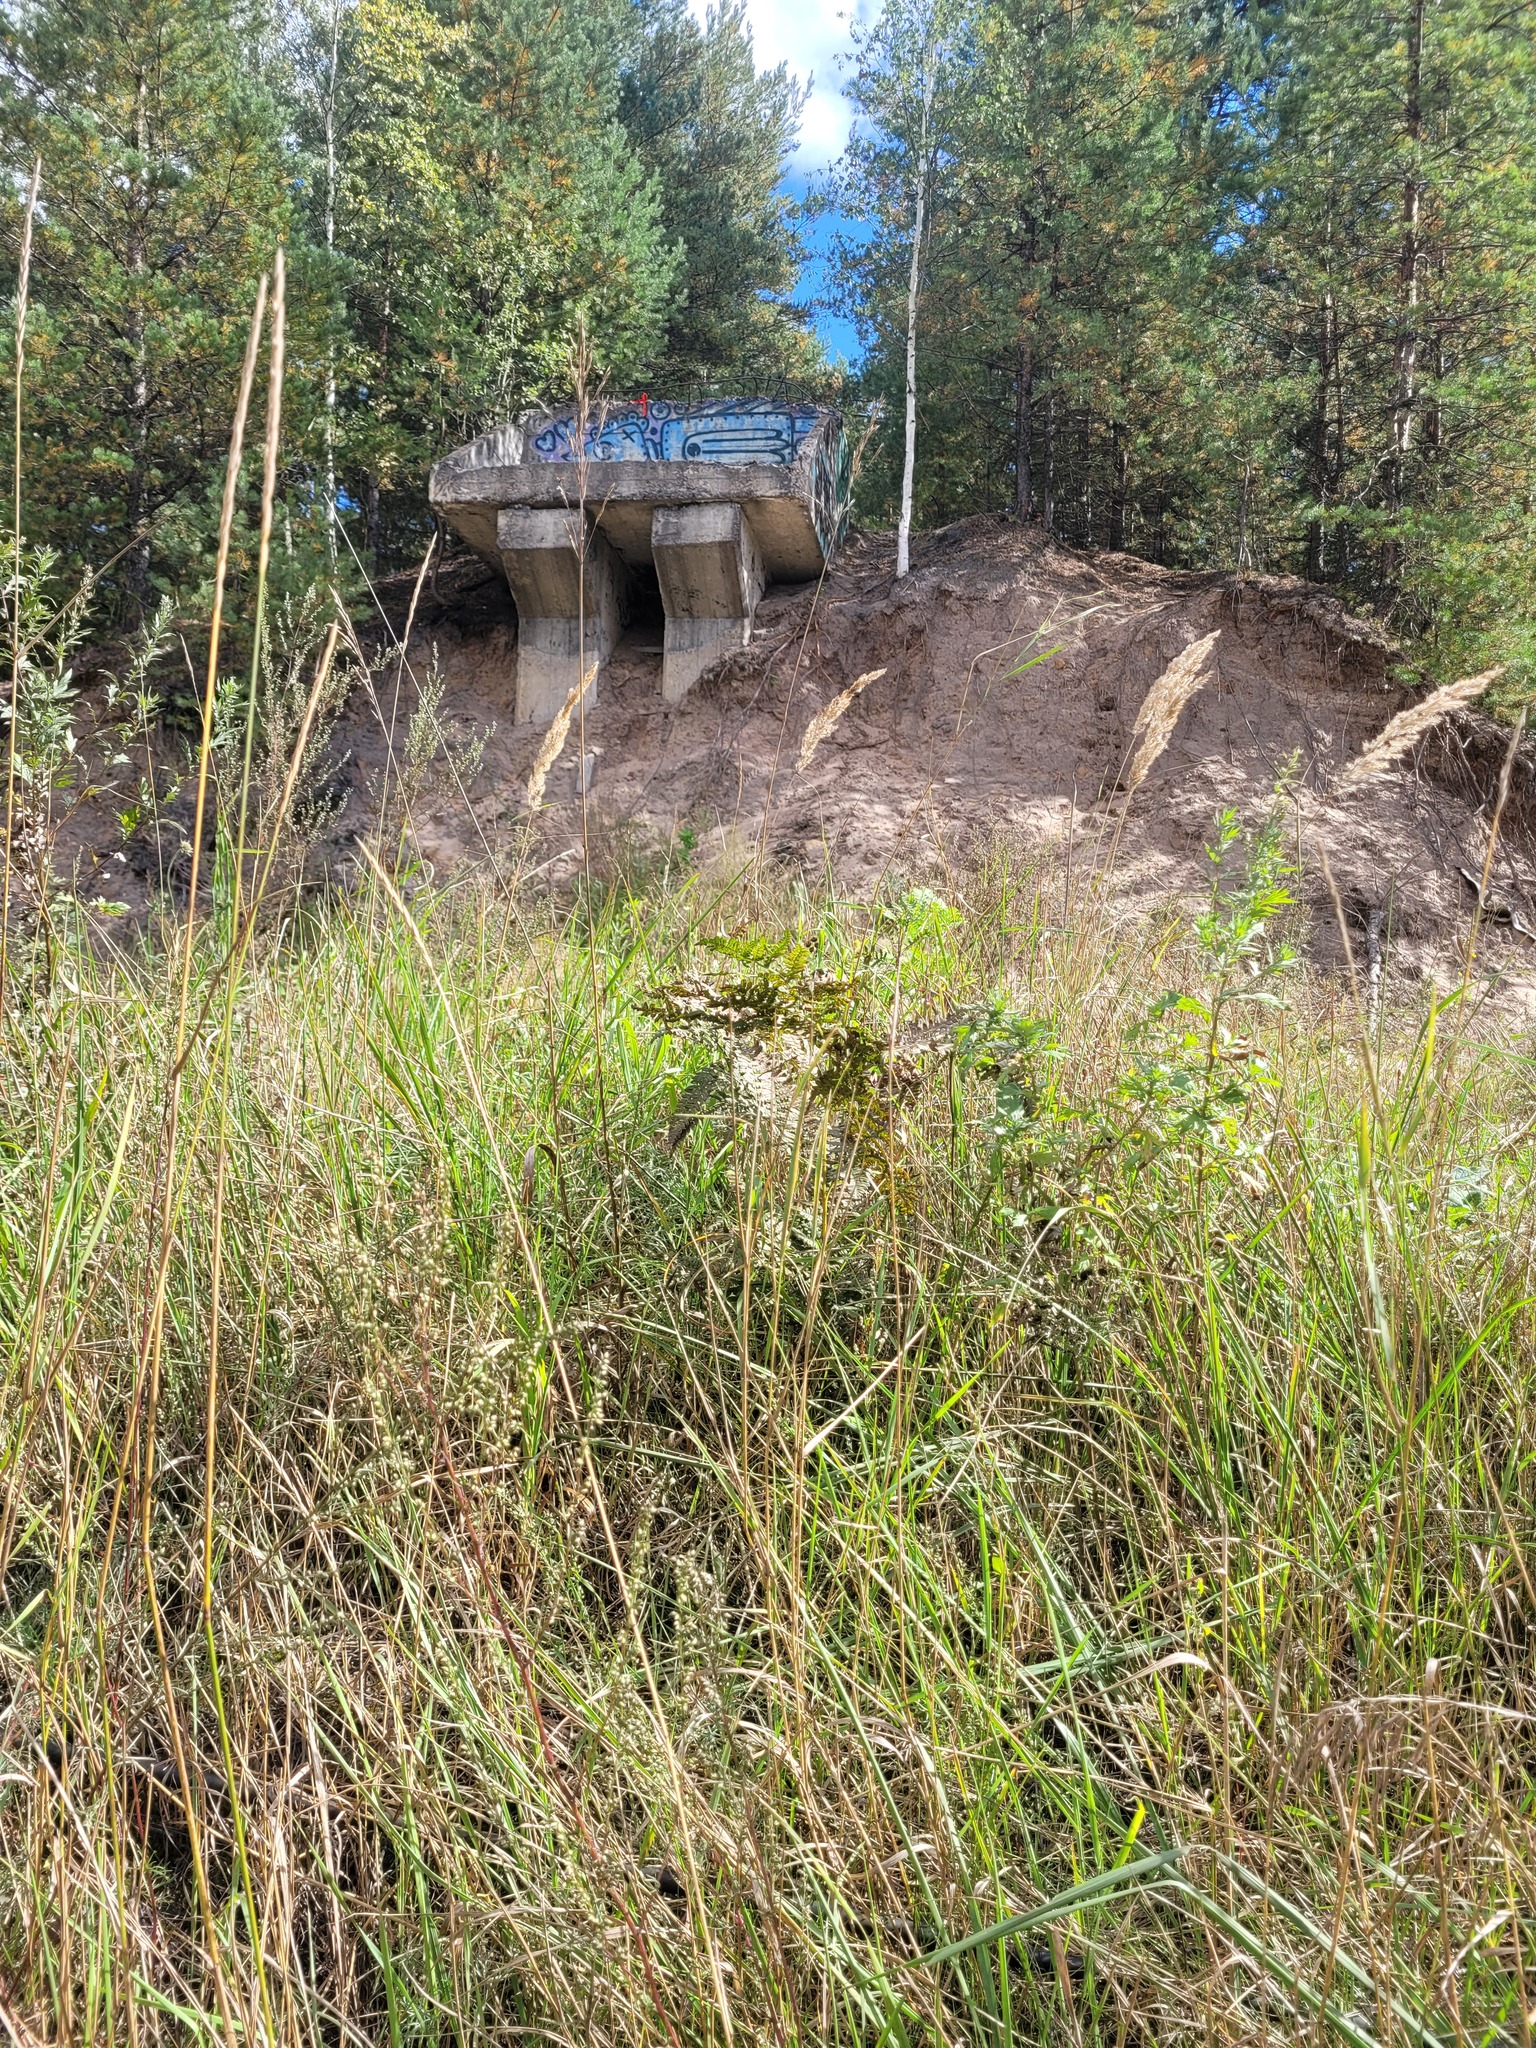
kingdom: Plantae
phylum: Tracheophyta
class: Polypodiopsida
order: Polypodiales
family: Dennstaedtiaceae
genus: Pteridium
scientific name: Pteridium aquilinum
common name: Bracken
